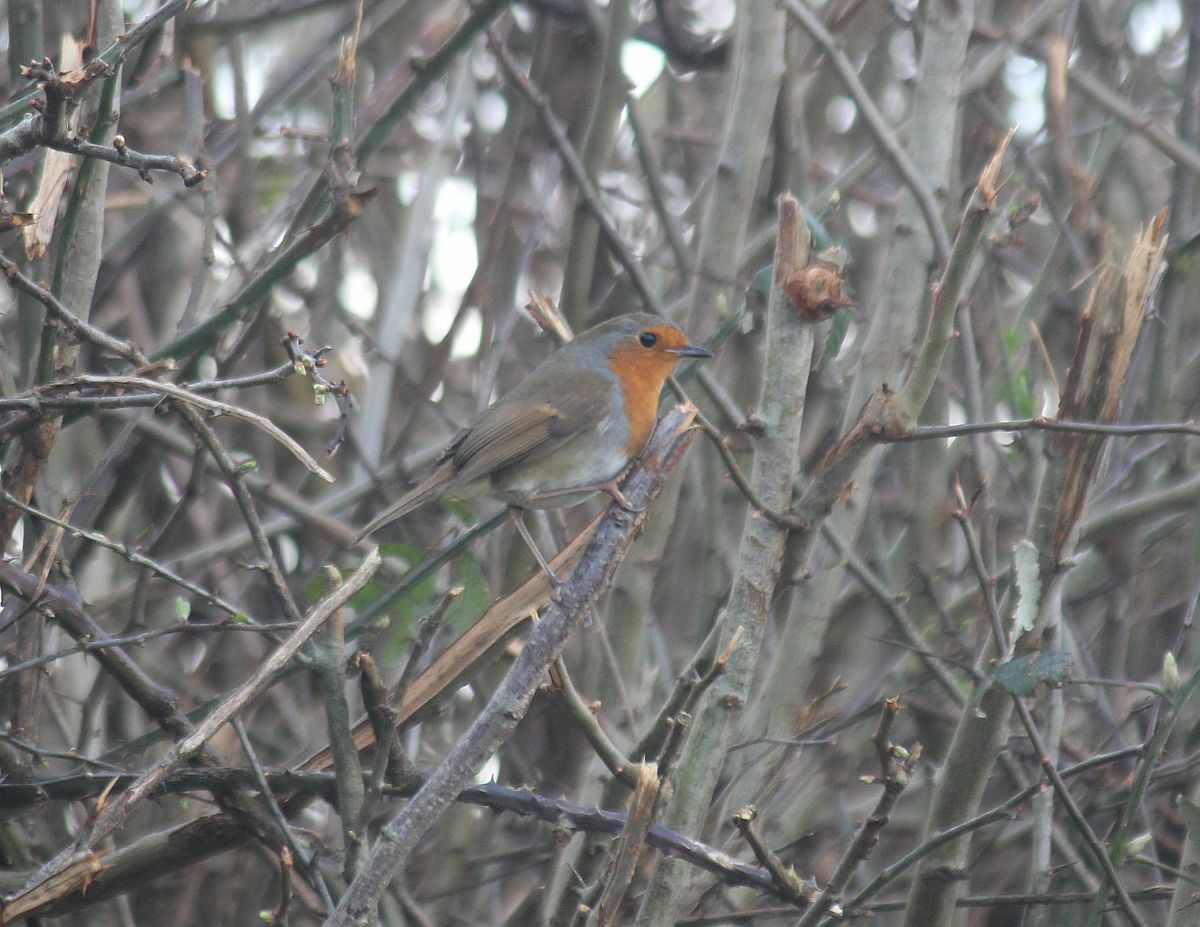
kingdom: Animalia
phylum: Chordata
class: Aves
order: Passeriformes
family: Muscicapidae
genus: Erithacus
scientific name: Erithacus rubecula
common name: European robin
